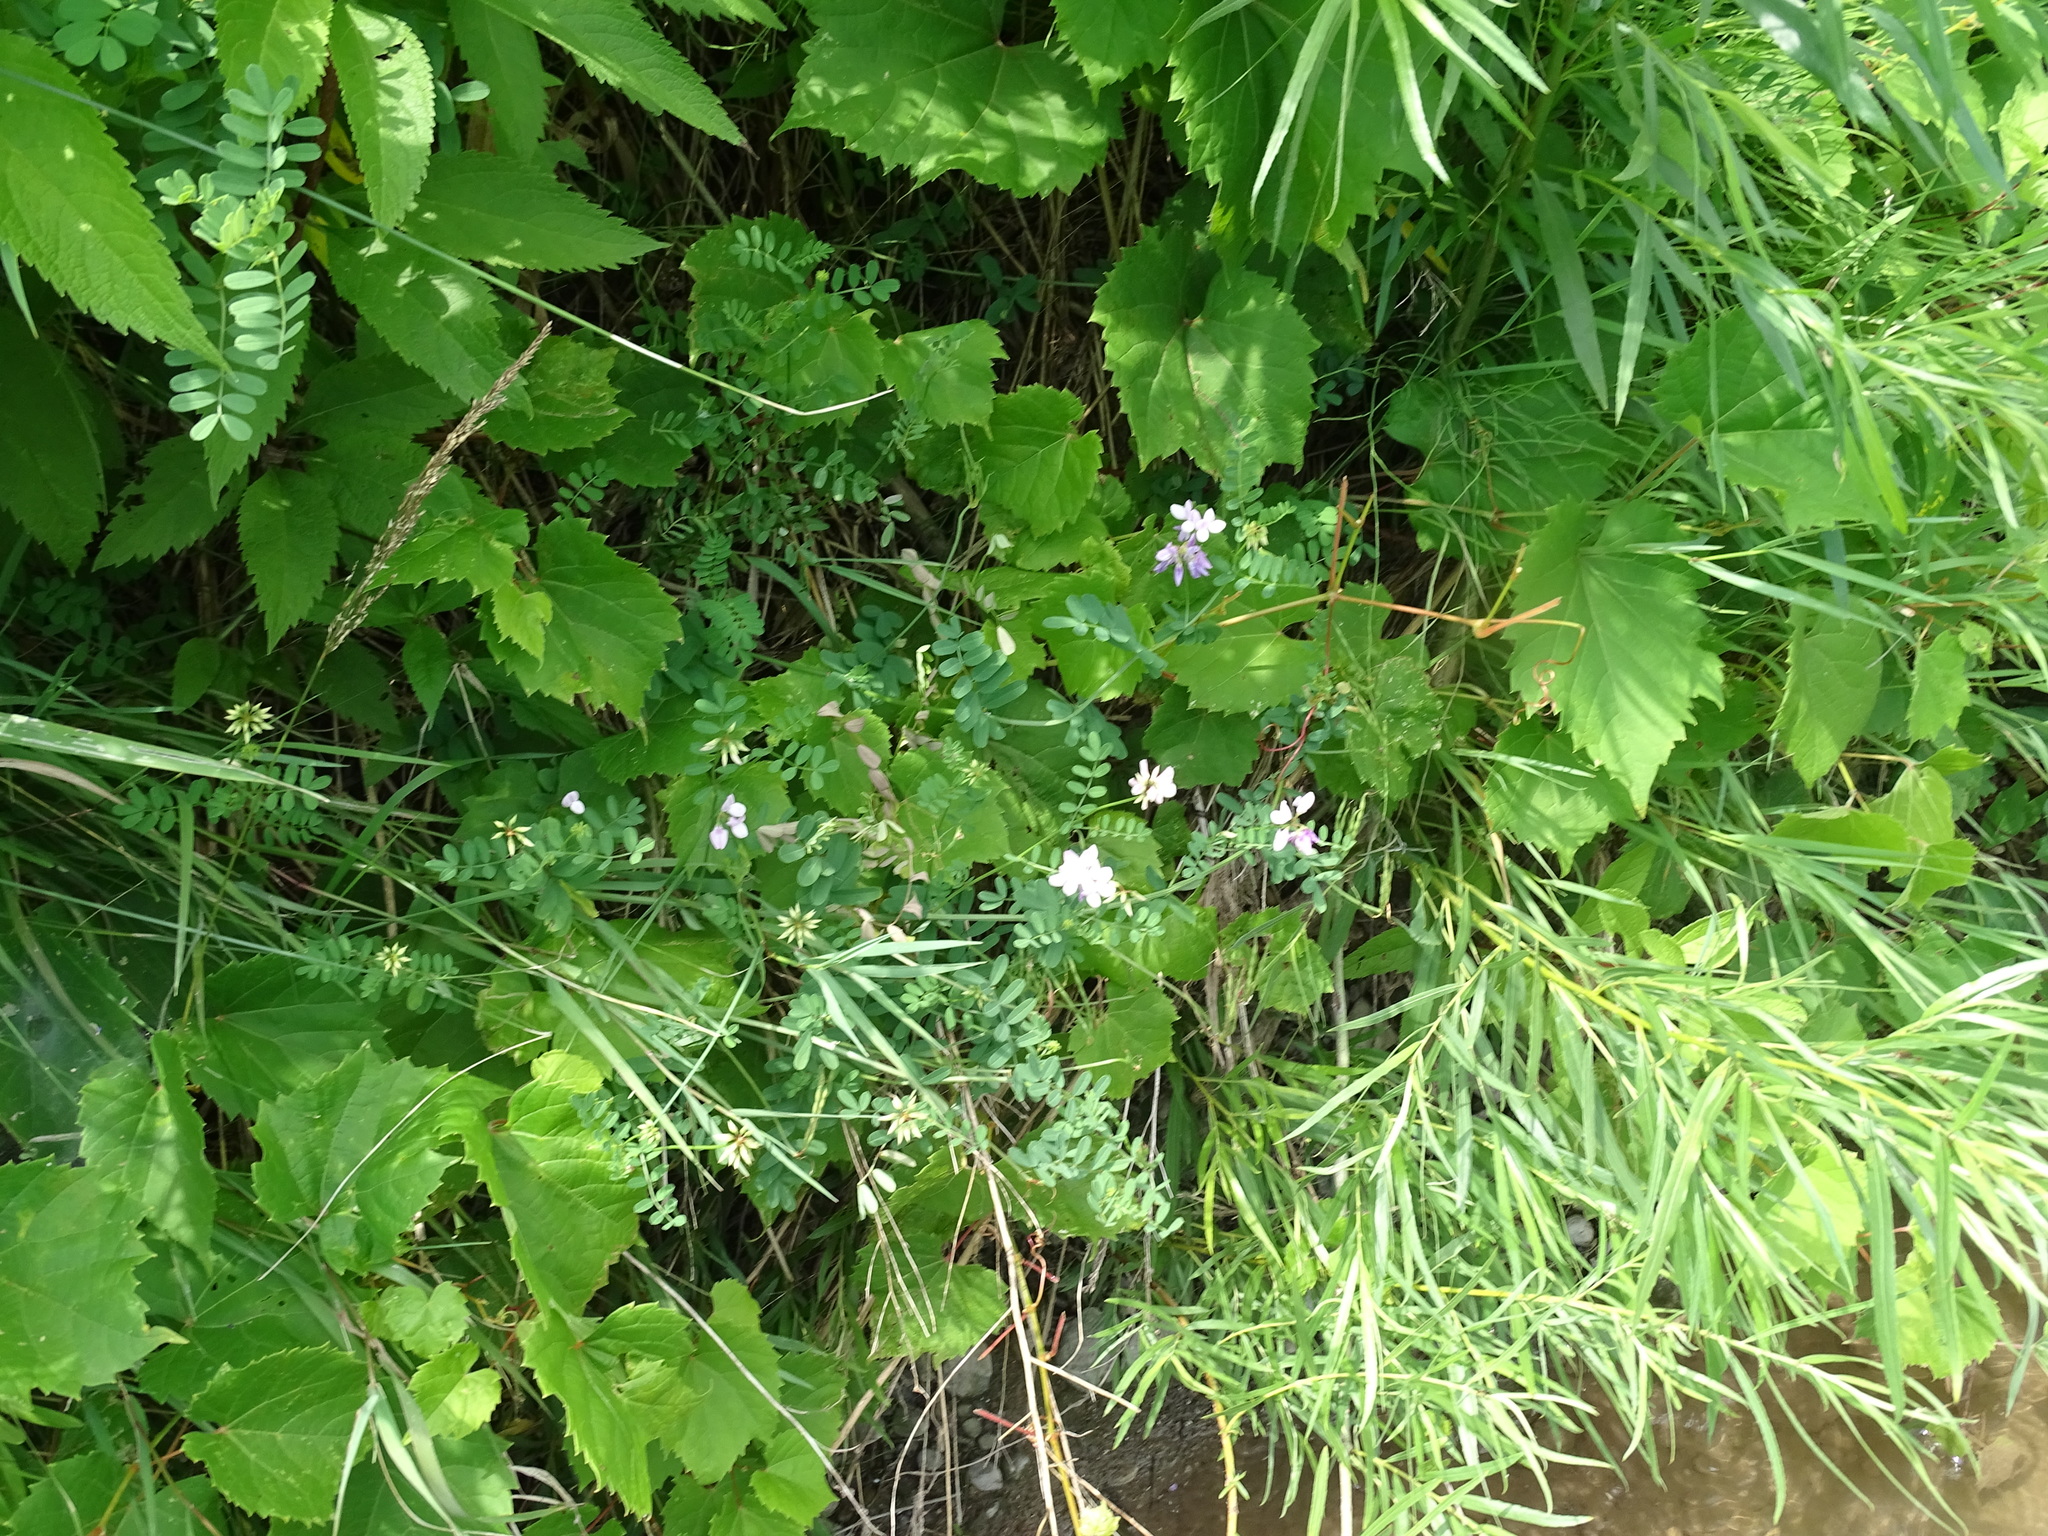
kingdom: Plantae
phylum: Tracheophyta
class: Magnoliopsida
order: Fabales
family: Fabaceae
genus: Coronilla
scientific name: Coronilla varia
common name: Crownvetch
